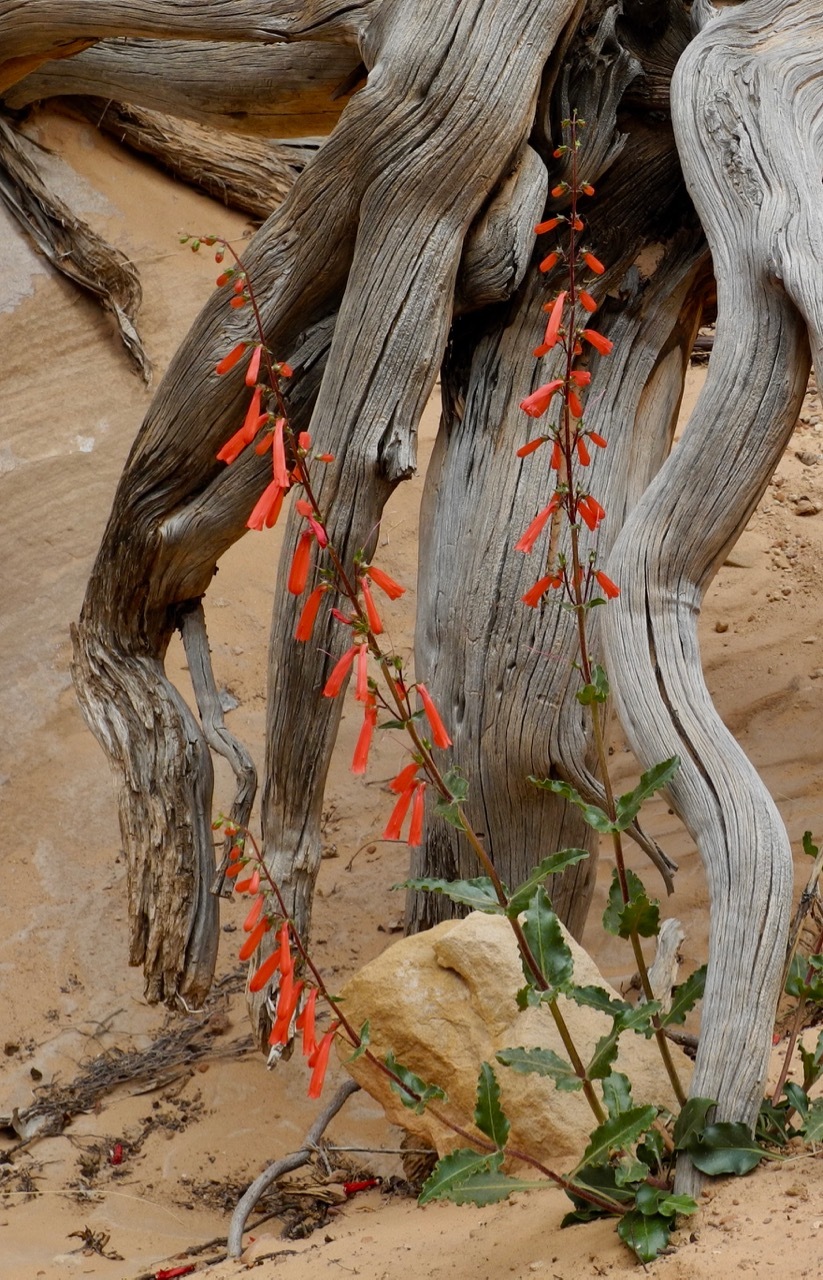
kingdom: Plantae
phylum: Tracheophyta
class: Magnoliopsida
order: Lamiales
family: Plantaginaceae
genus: Penstemon
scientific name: Penstemon eatonii
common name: Eaton's penstemon
